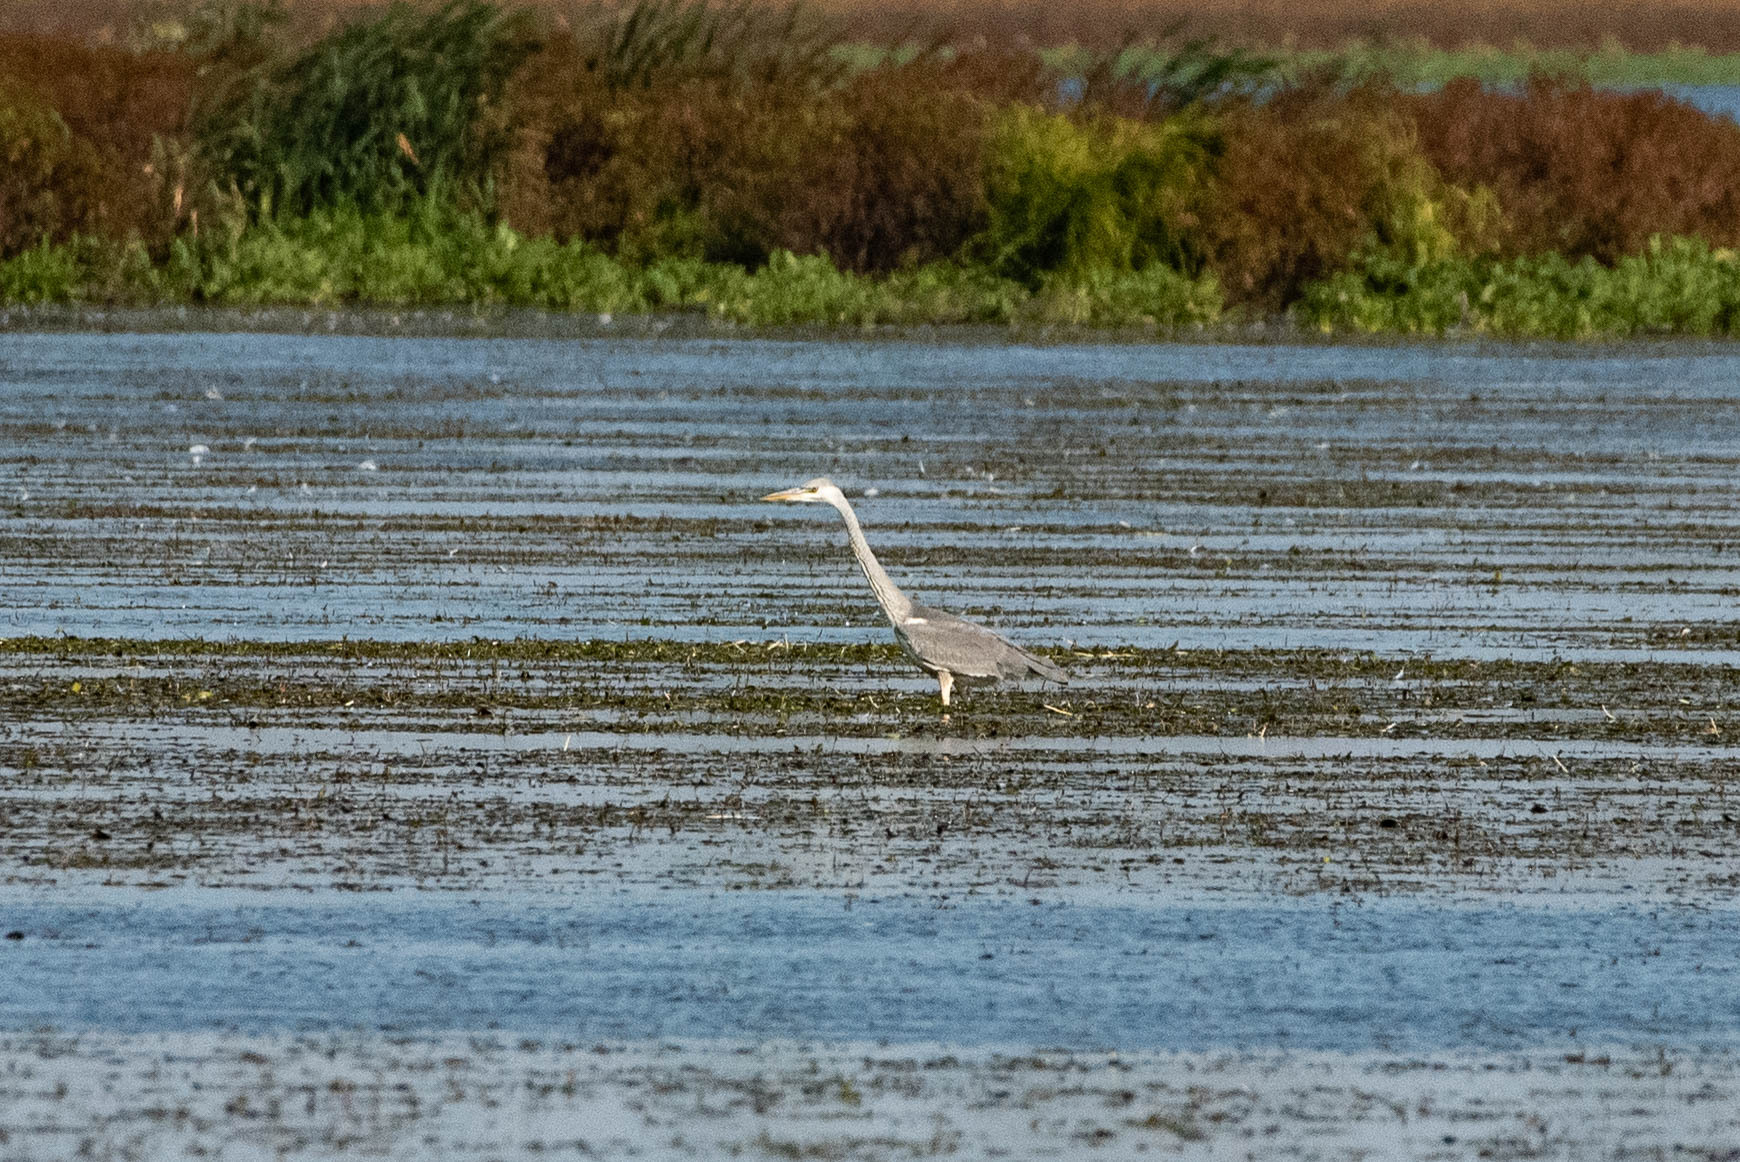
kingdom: Animalia
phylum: Chordata
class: Aves
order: Pelecaniformes
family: Ardeidae
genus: Ardea
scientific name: Ardea cinerea
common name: Grey heron
